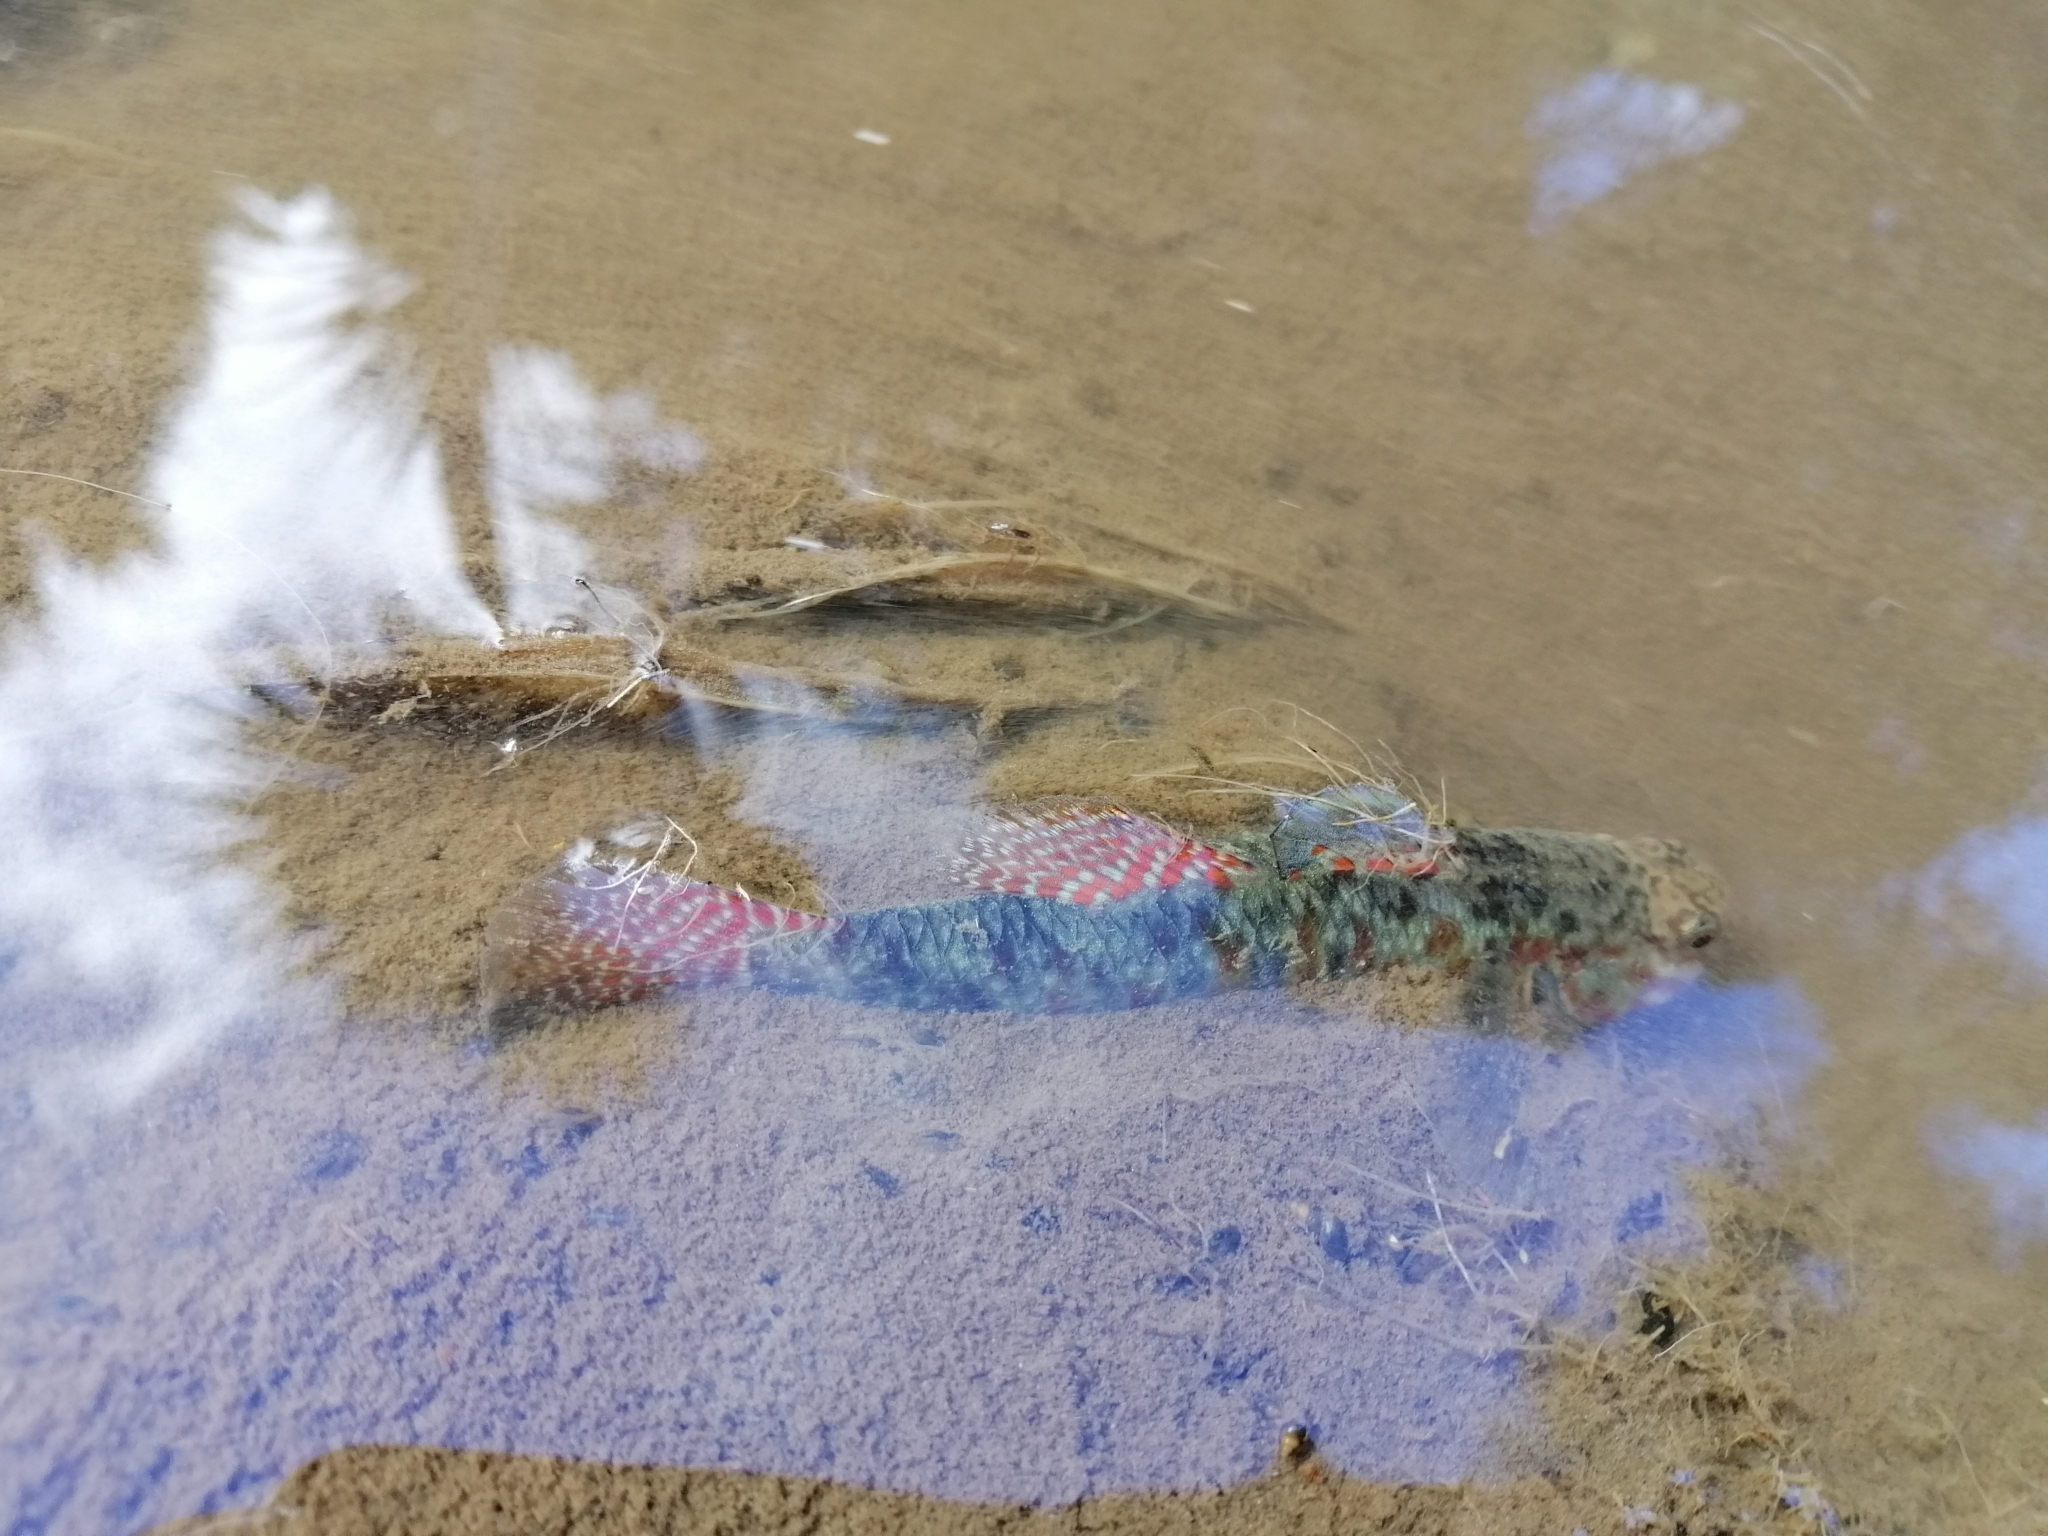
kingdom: Animalia
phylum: Chordata
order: Perciformes
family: Eleotridae
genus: Gobiomorphus
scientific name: Gobiomorphus huttoni
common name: Redfin bully
